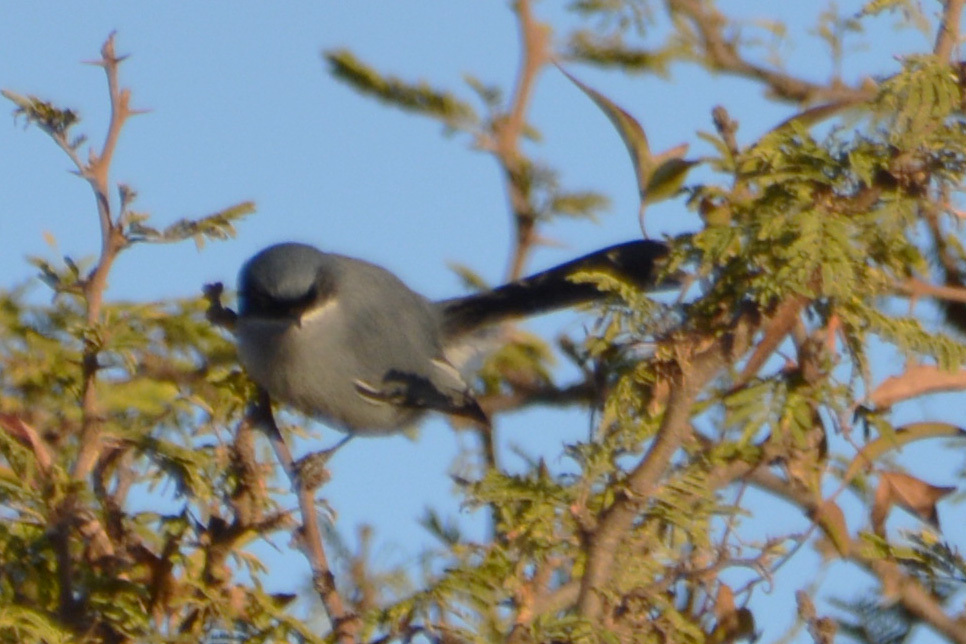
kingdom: Animalia
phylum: Chordata
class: Aves
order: Passeriformes
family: Polioptilidae
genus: Polioptila
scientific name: Polioptila dumicola
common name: Masked gnatcatcher
